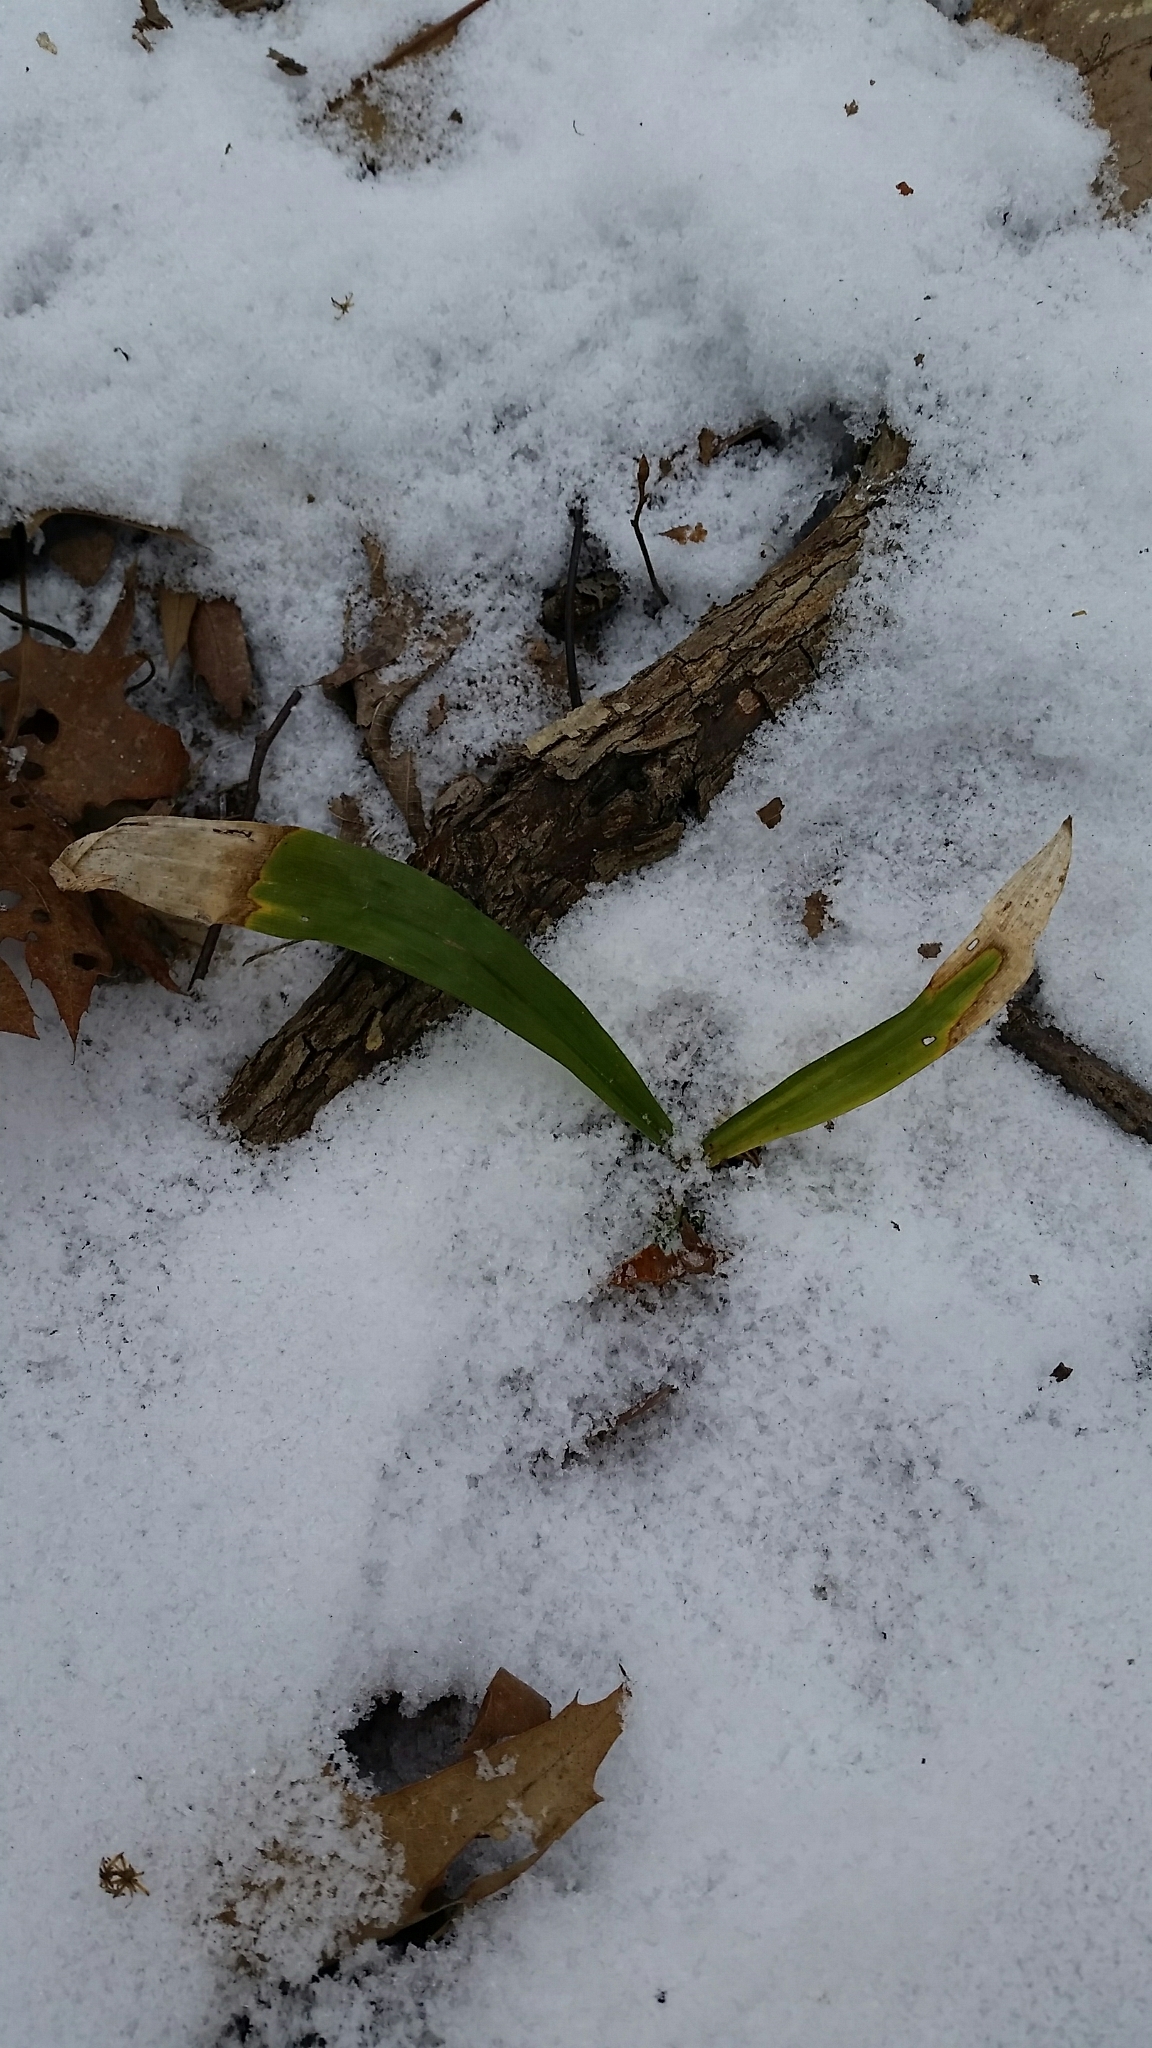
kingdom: Plantae
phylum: Tracheophyta
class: Liliopsida
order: Poales
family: Cyperaceae
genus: Carex
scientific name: Carex albursina
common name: Blunt-scale wood sedge
